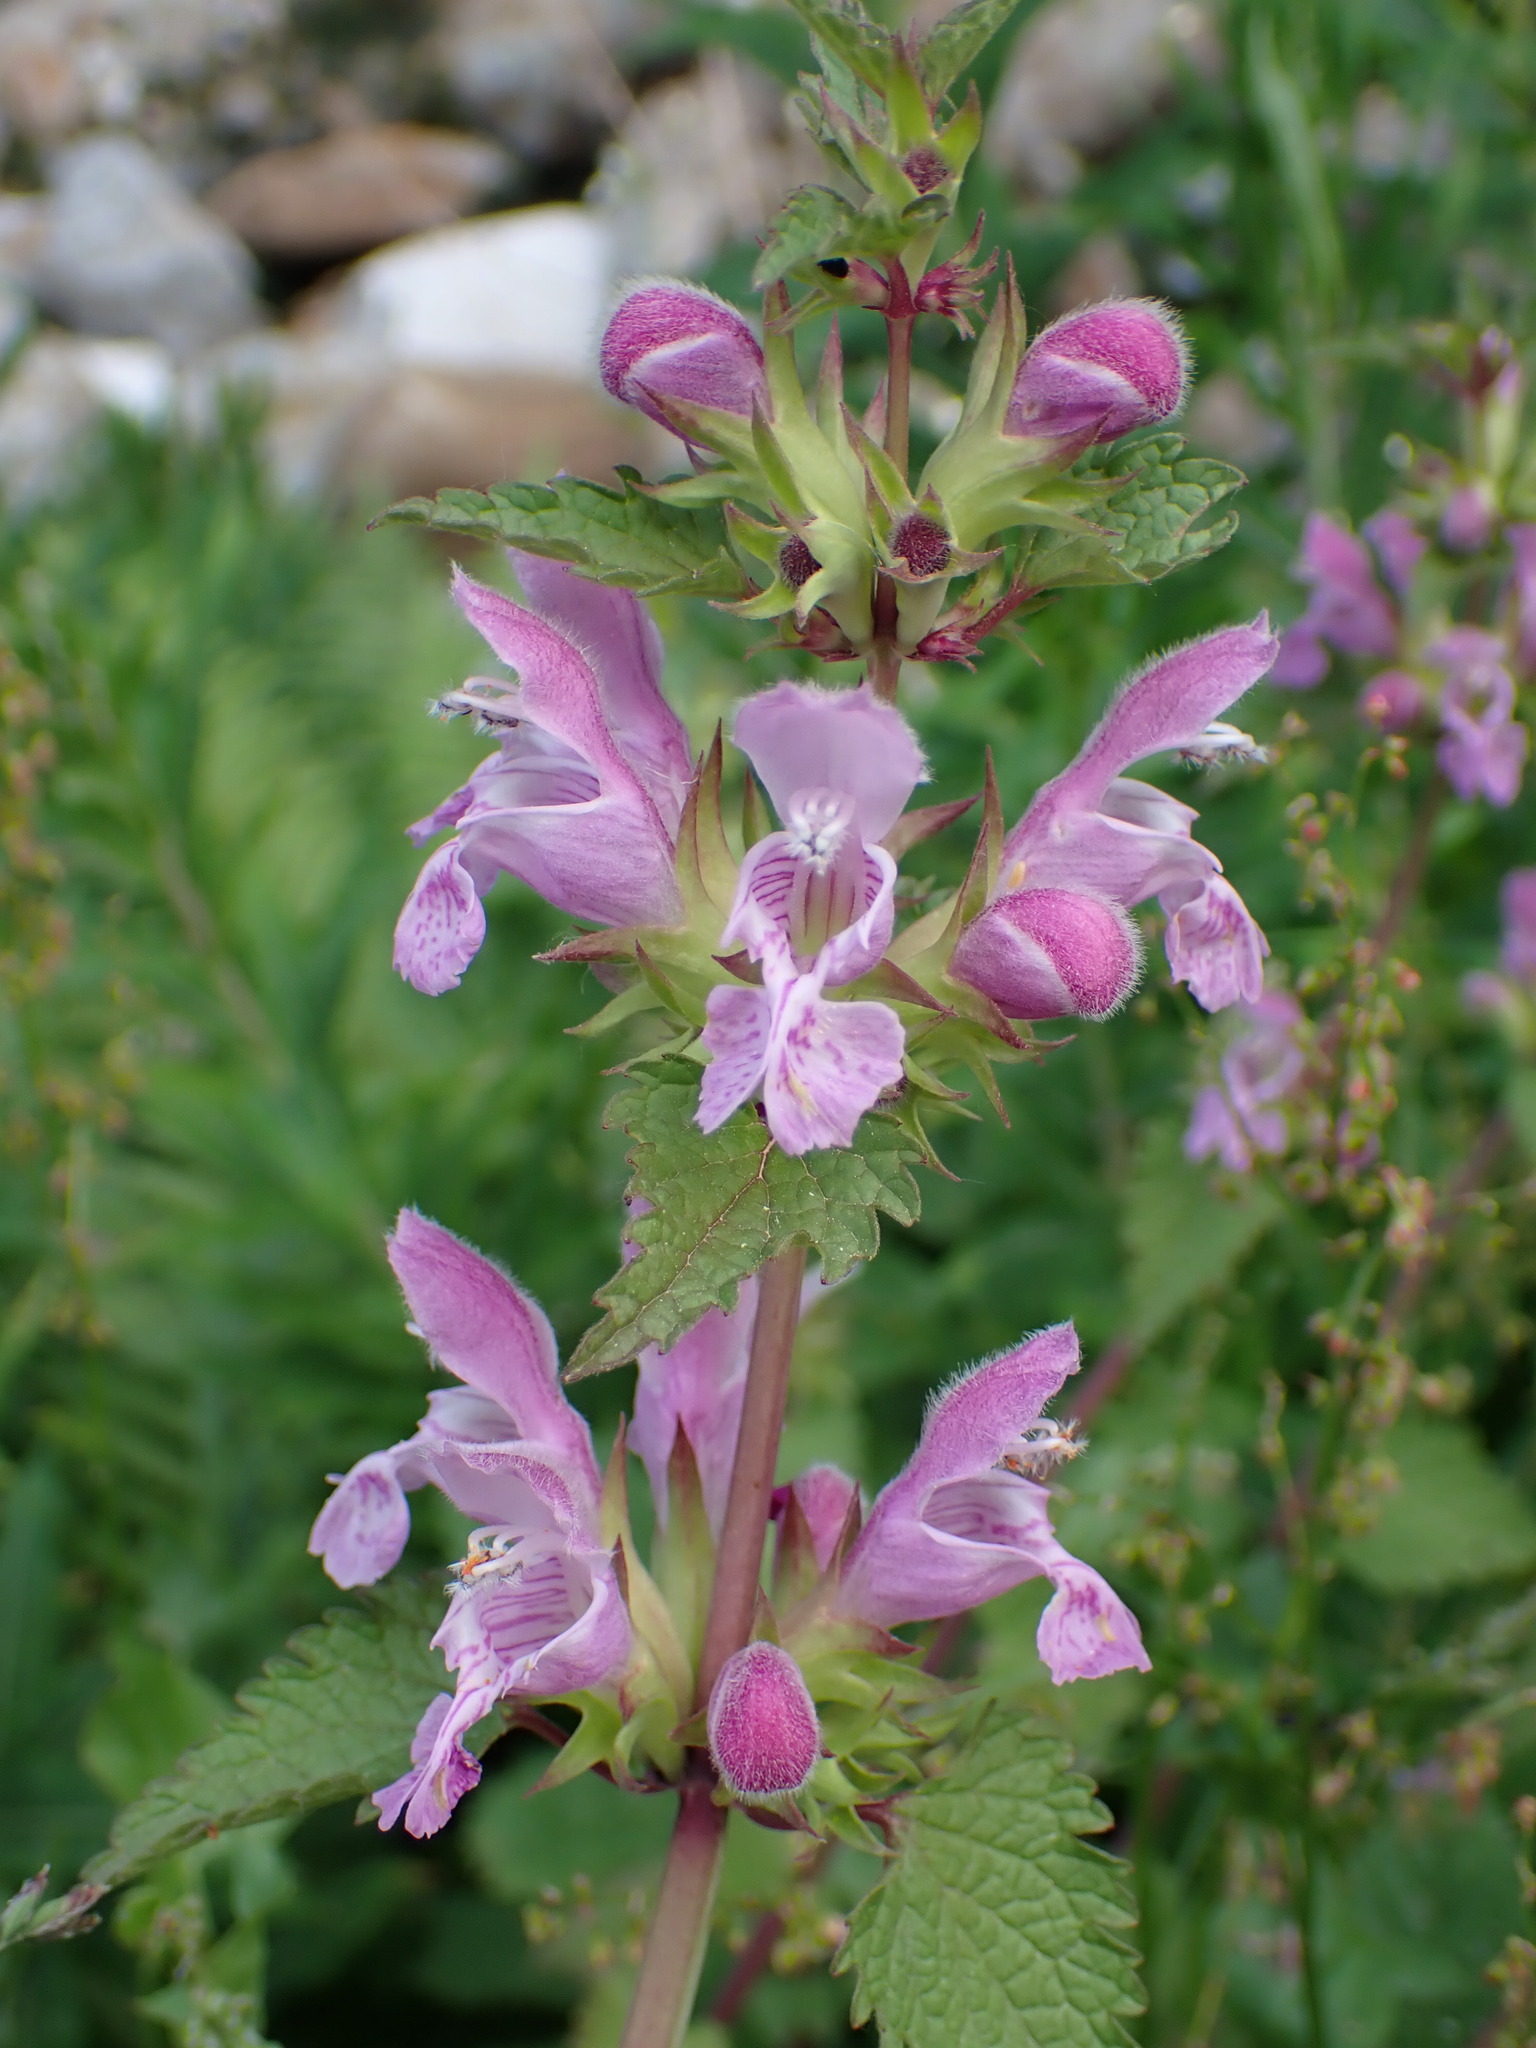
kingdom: Plantae
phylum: Tracheophyta
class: Magnoliopsida
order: Lamiales
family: Lamiaceae
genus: Lamium
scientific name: Lamium garganicum
